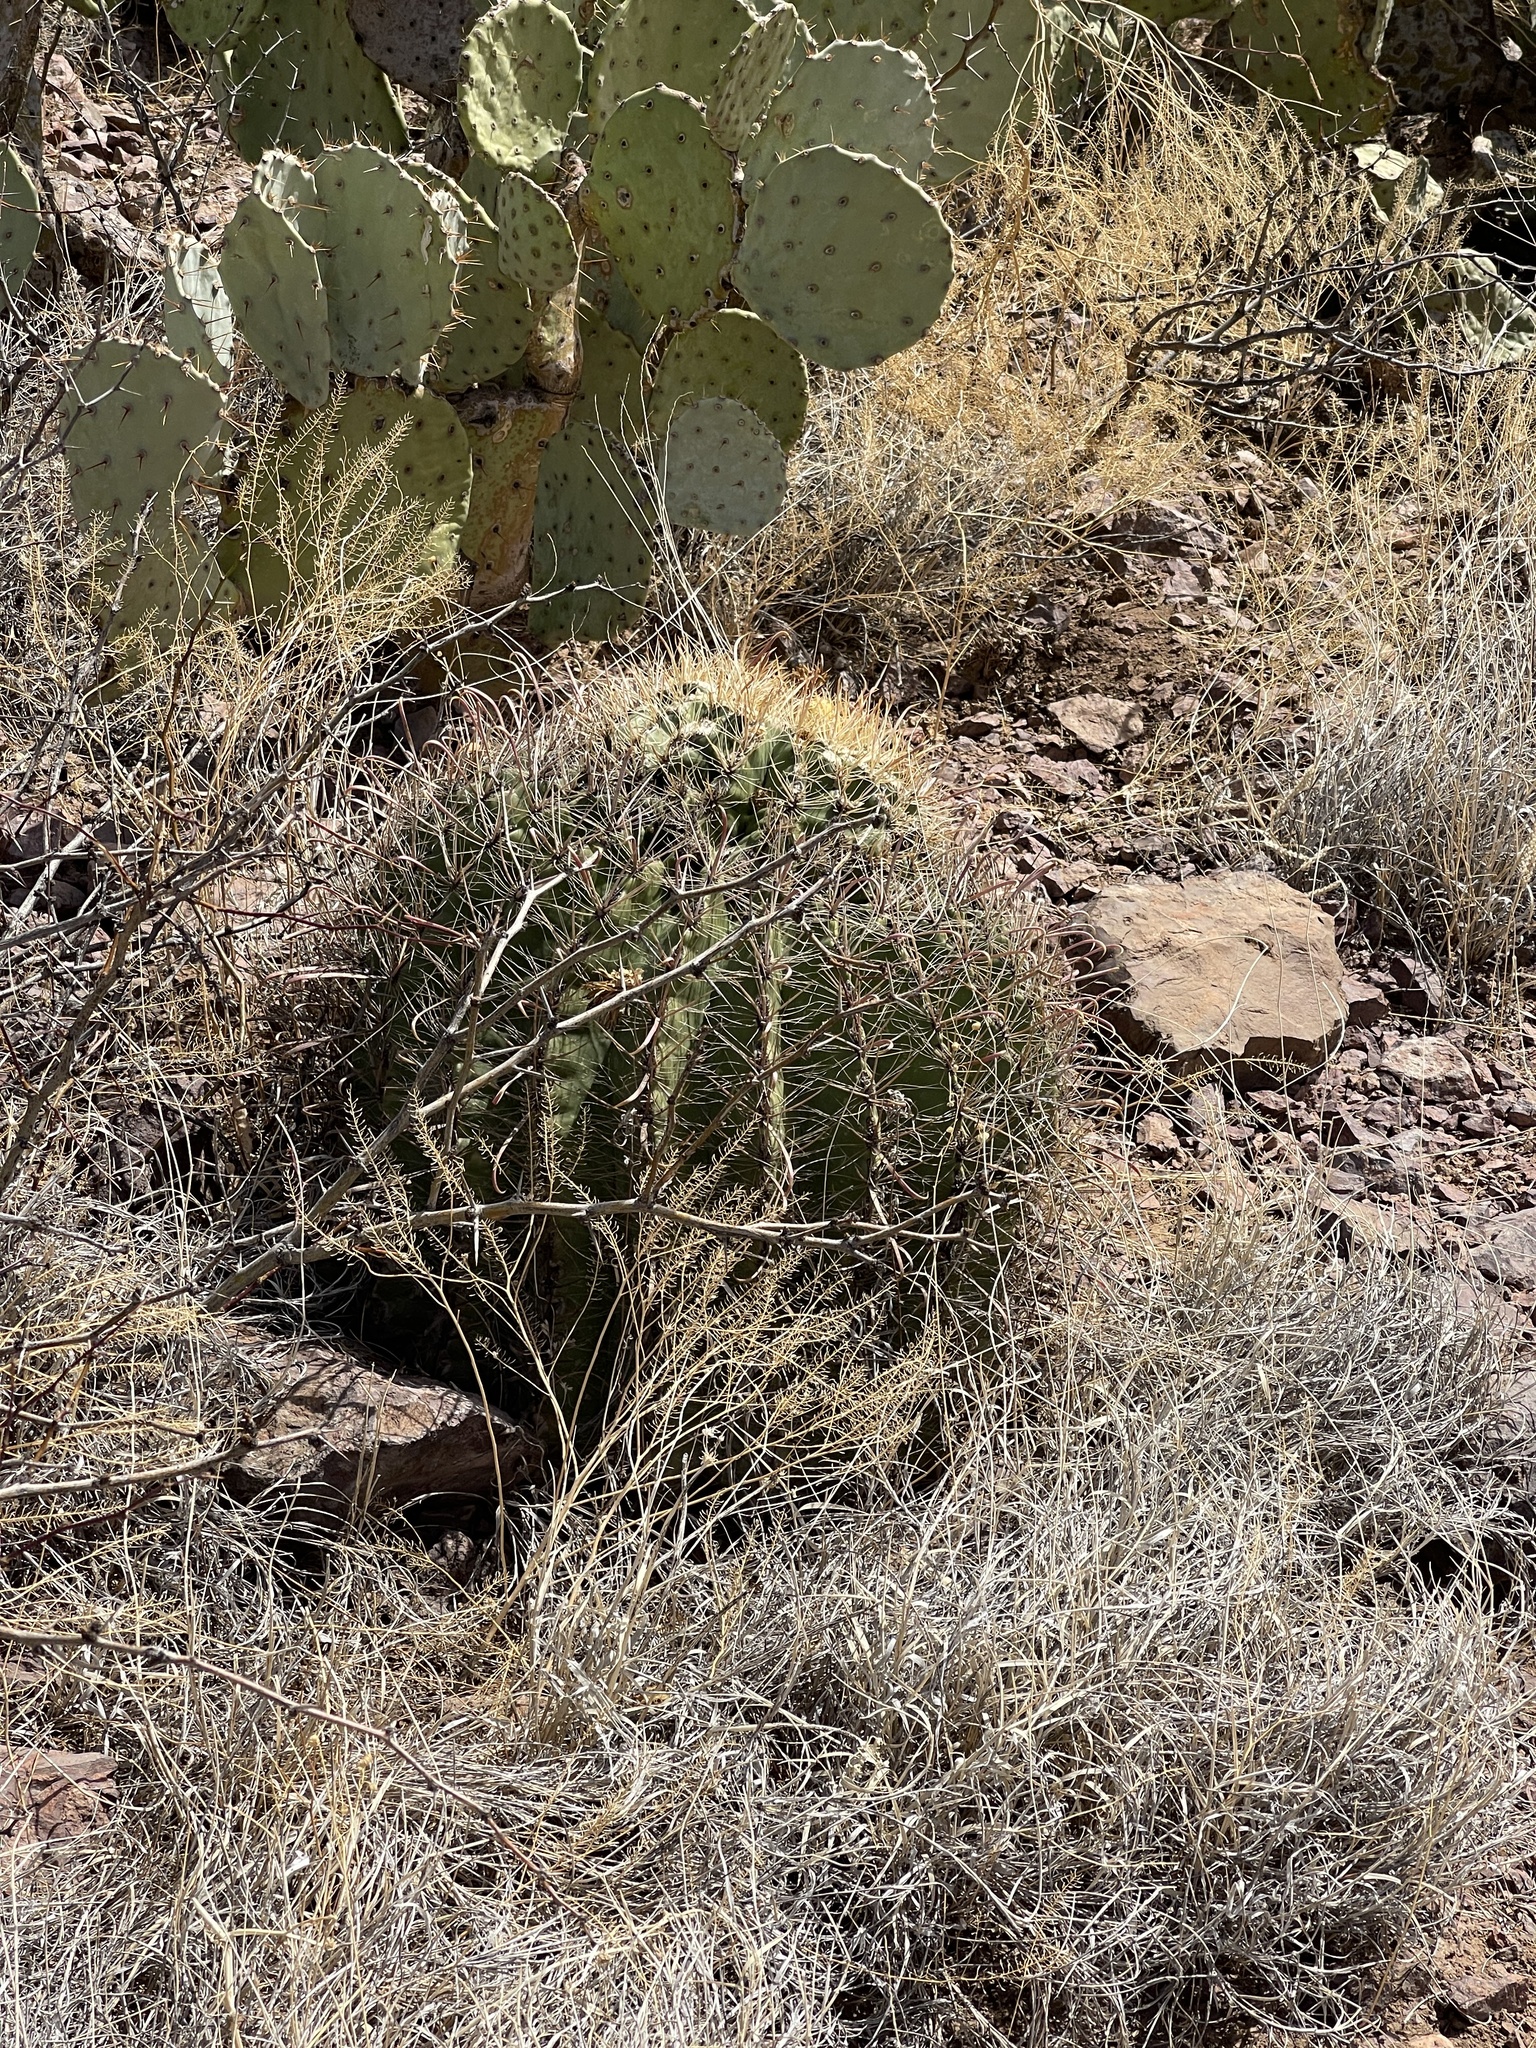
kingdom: Plantae
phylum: Tracheophyta
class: Magnoliopsida
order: Caryophyllales
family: Cactaceae
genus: Ferocactus
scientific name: Ferocactus wislizeni
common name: Candy barrel cactus
